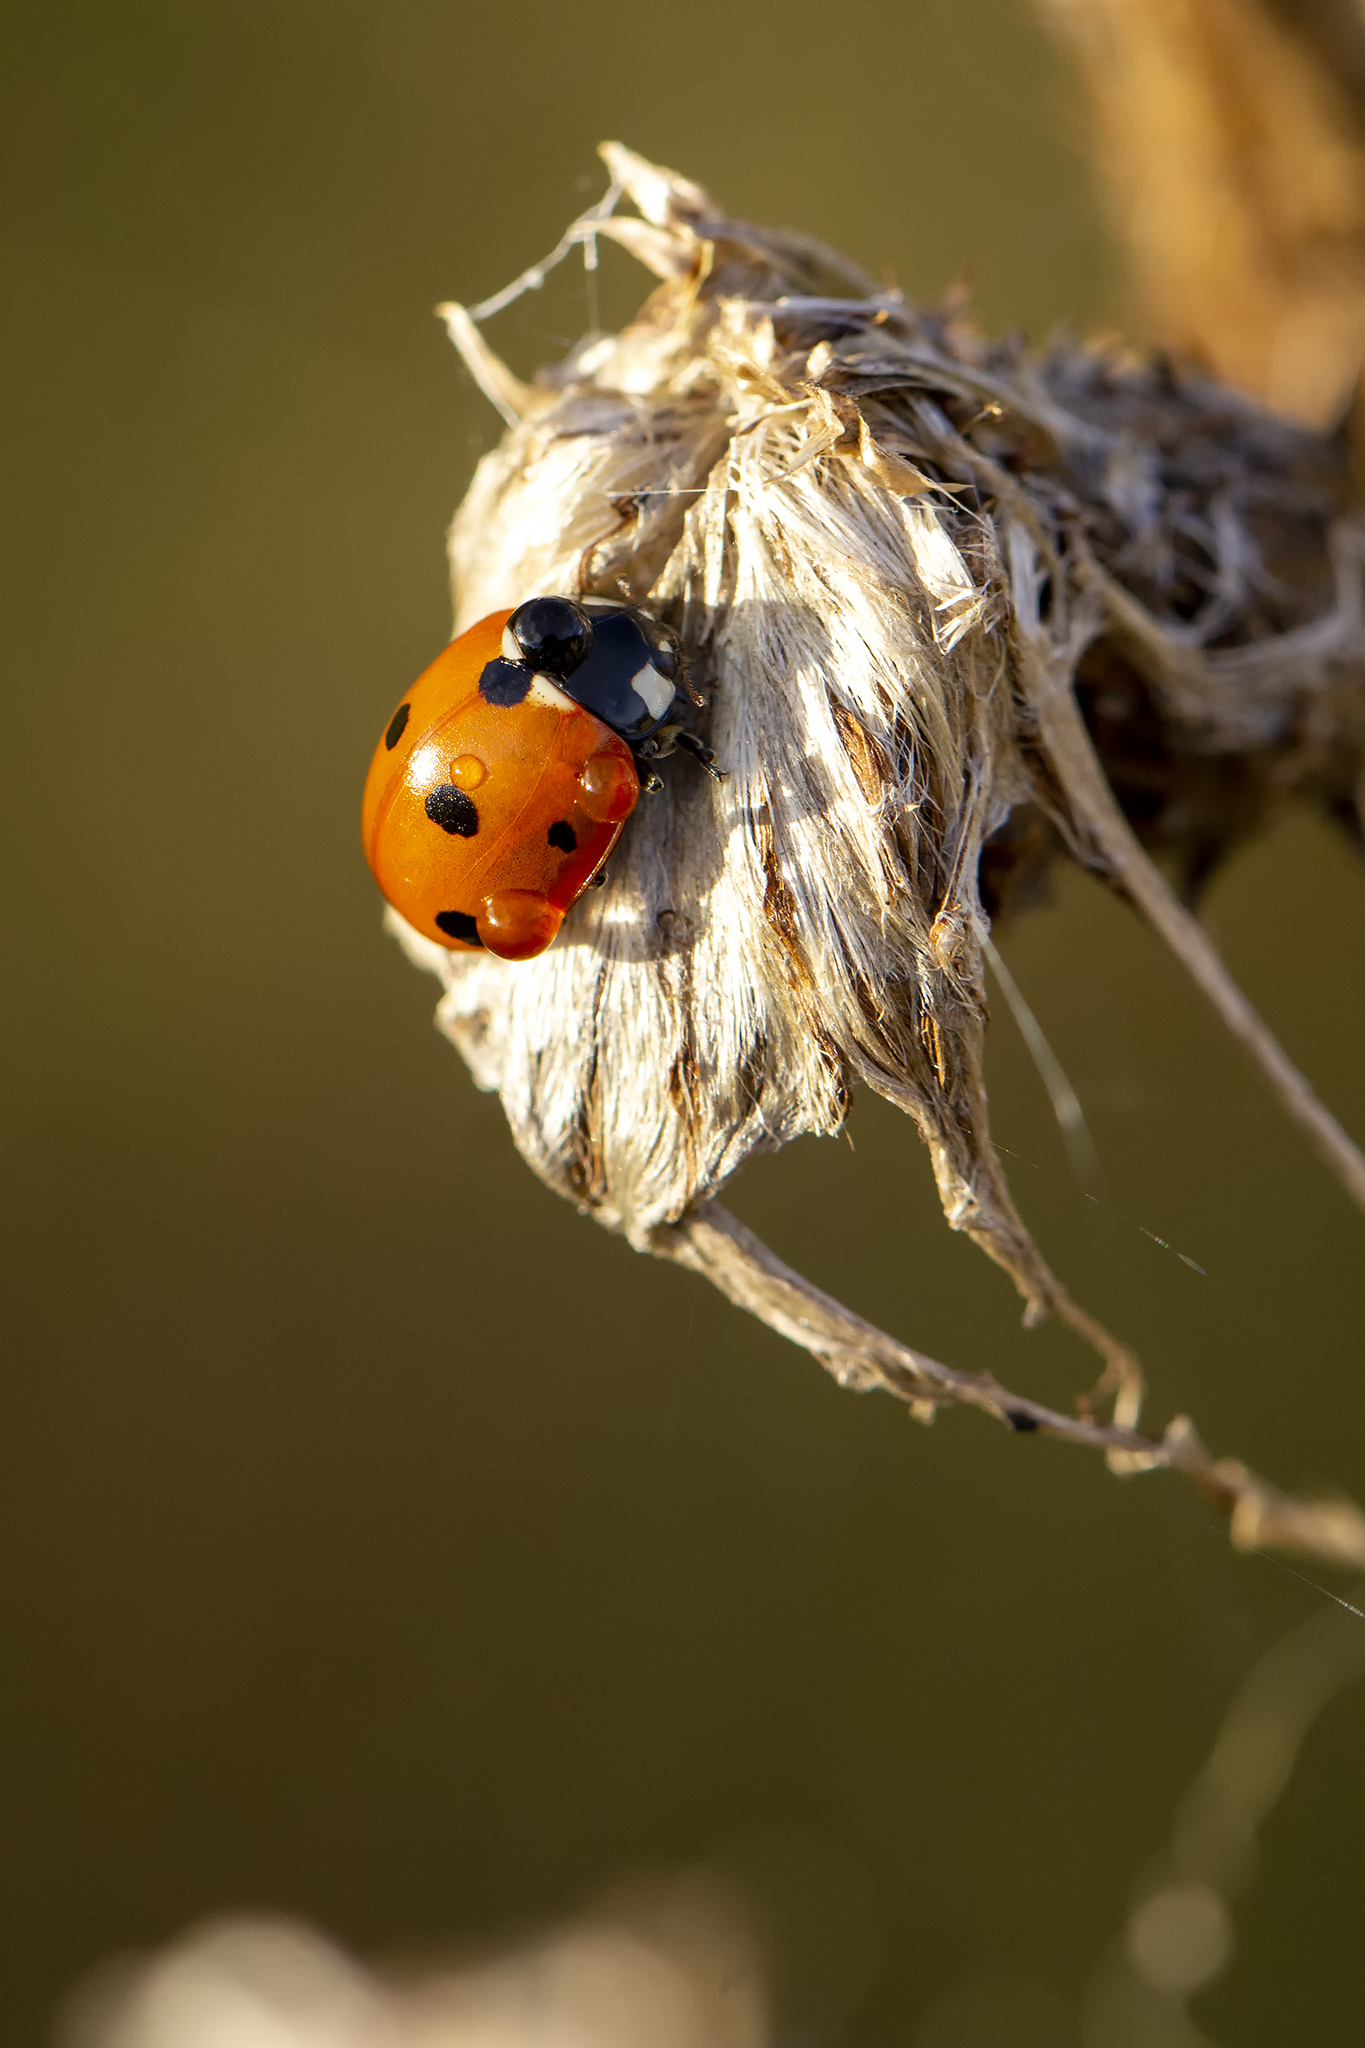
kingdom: Animalia
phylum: Arthropoda
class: Insecta
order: Coleoptera
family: Coccinellidae
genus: Coccinella
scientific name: Coccinella septempunctata
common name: Sevenspotted lady beetle
